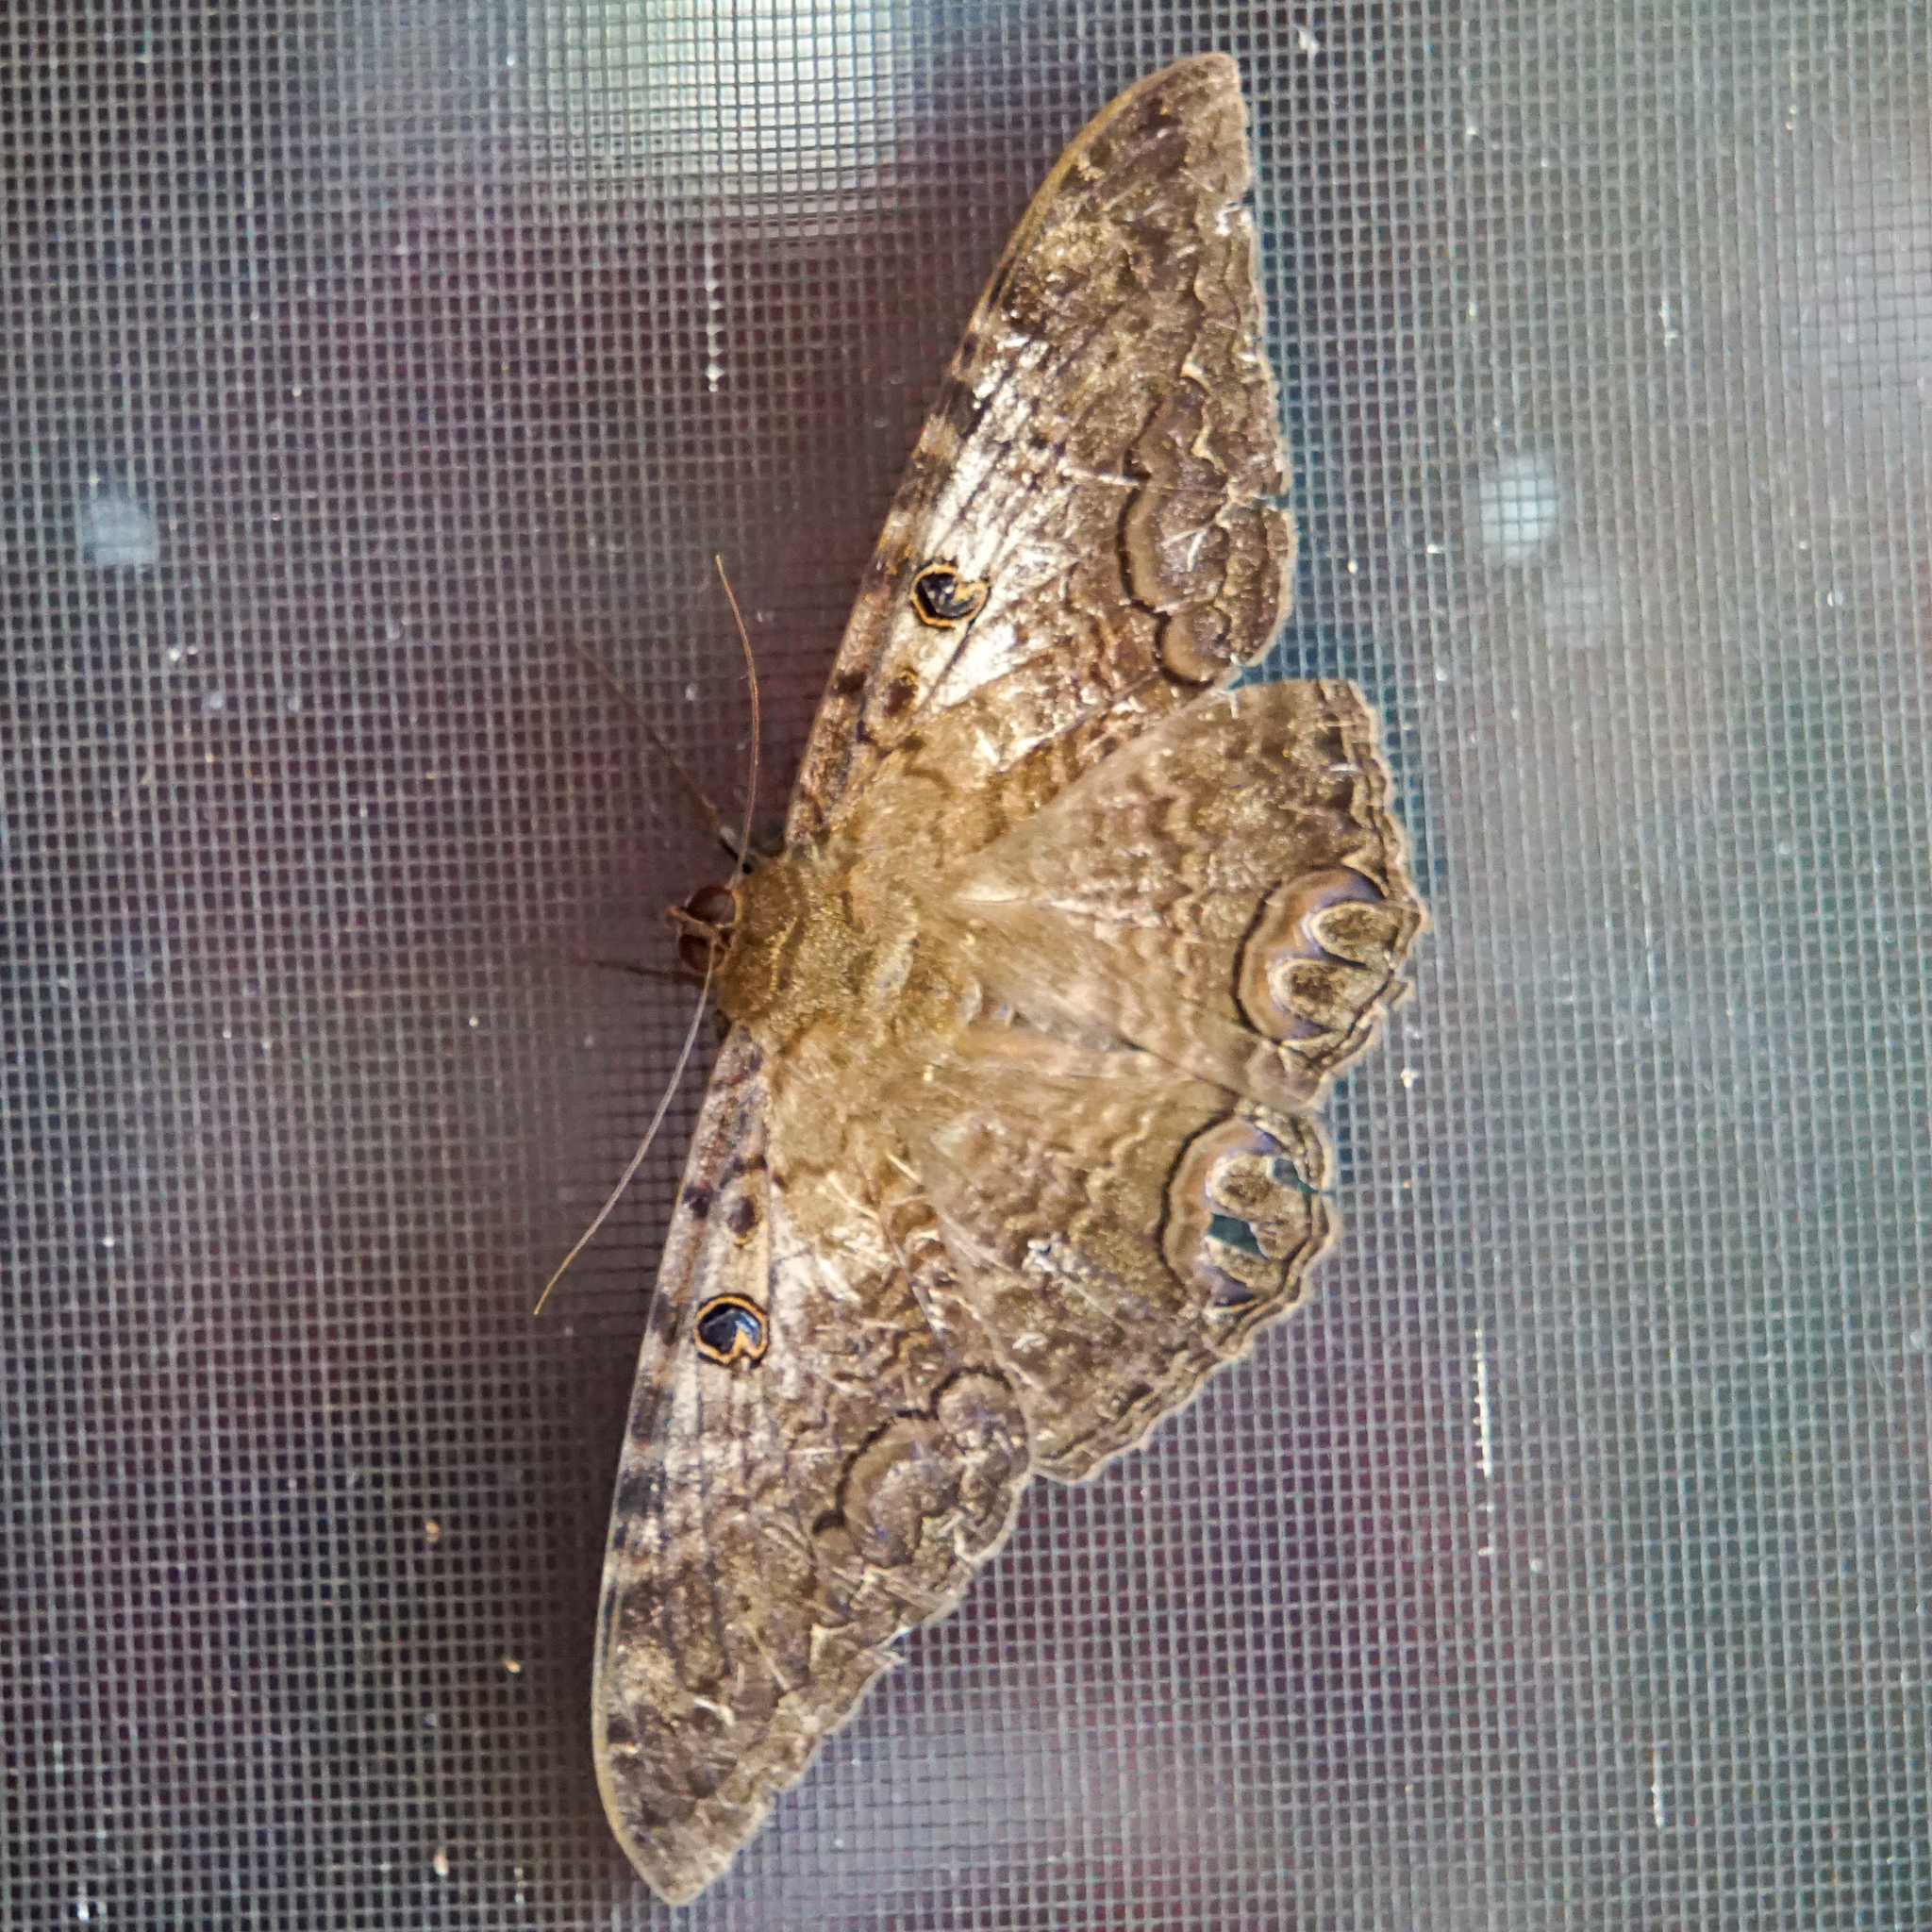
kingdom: Animalia
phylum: Arthropoda
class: Insecta
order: Lepidoptera
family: Erebidae
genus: Ascalapha
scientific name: Ascalapha odorata
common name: Black witch
